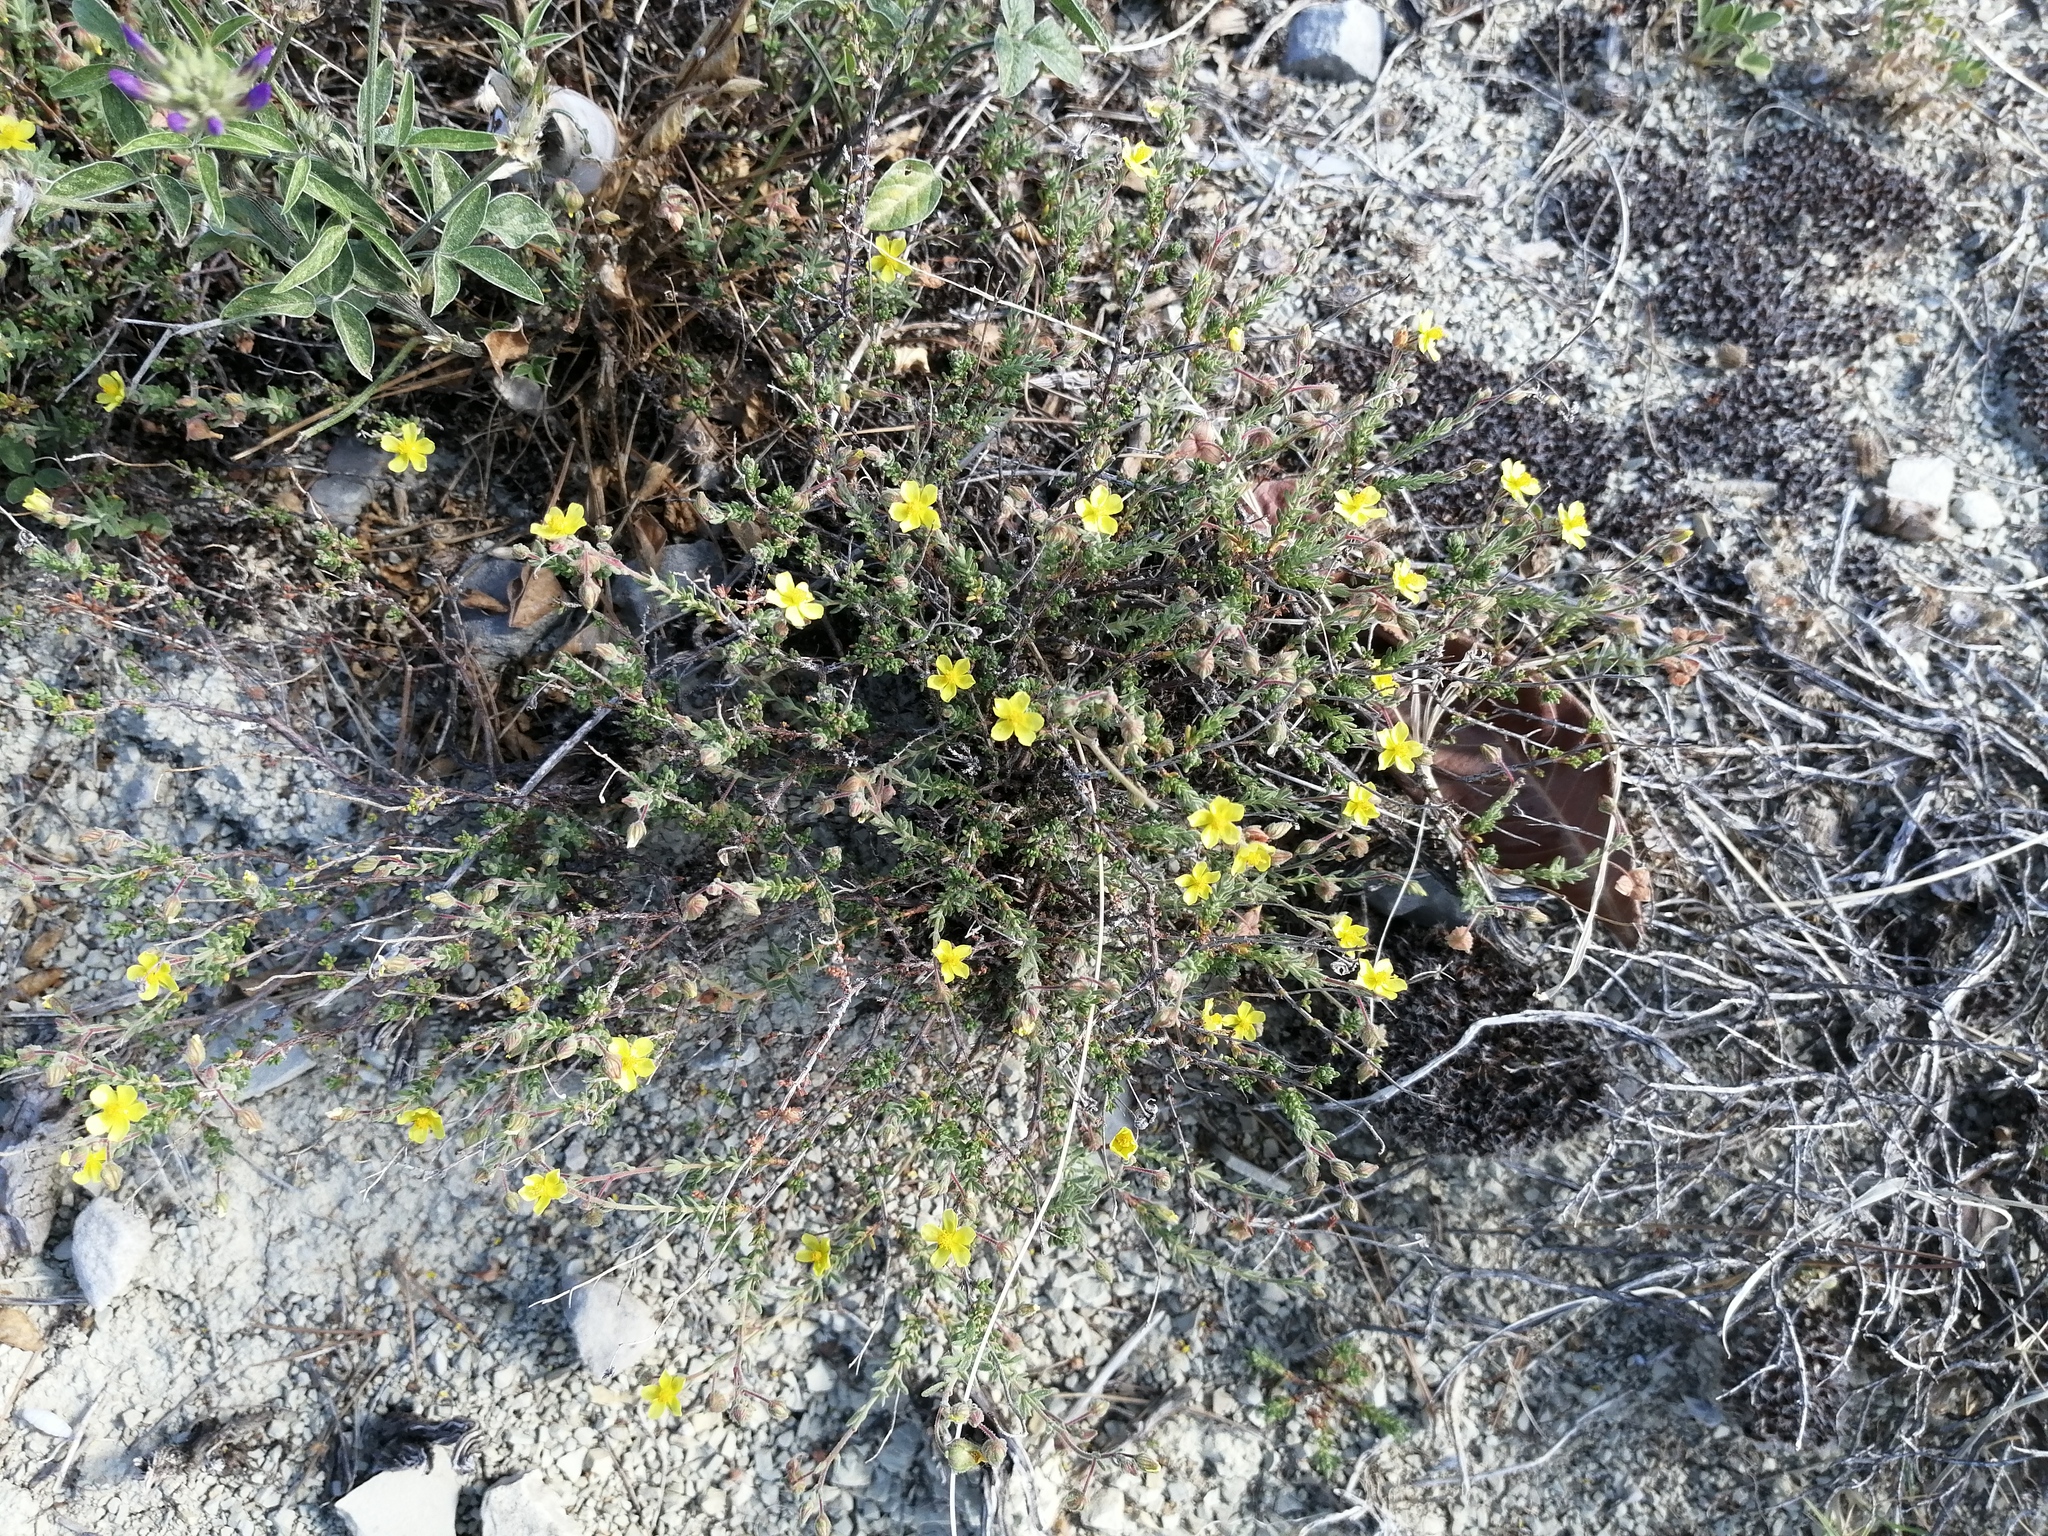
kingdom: Plantae
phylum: Tracheophyta
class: Magnoliopsida
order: Malvales
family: Cistaceae
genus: Fumana
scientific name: Fumana thymifolia
